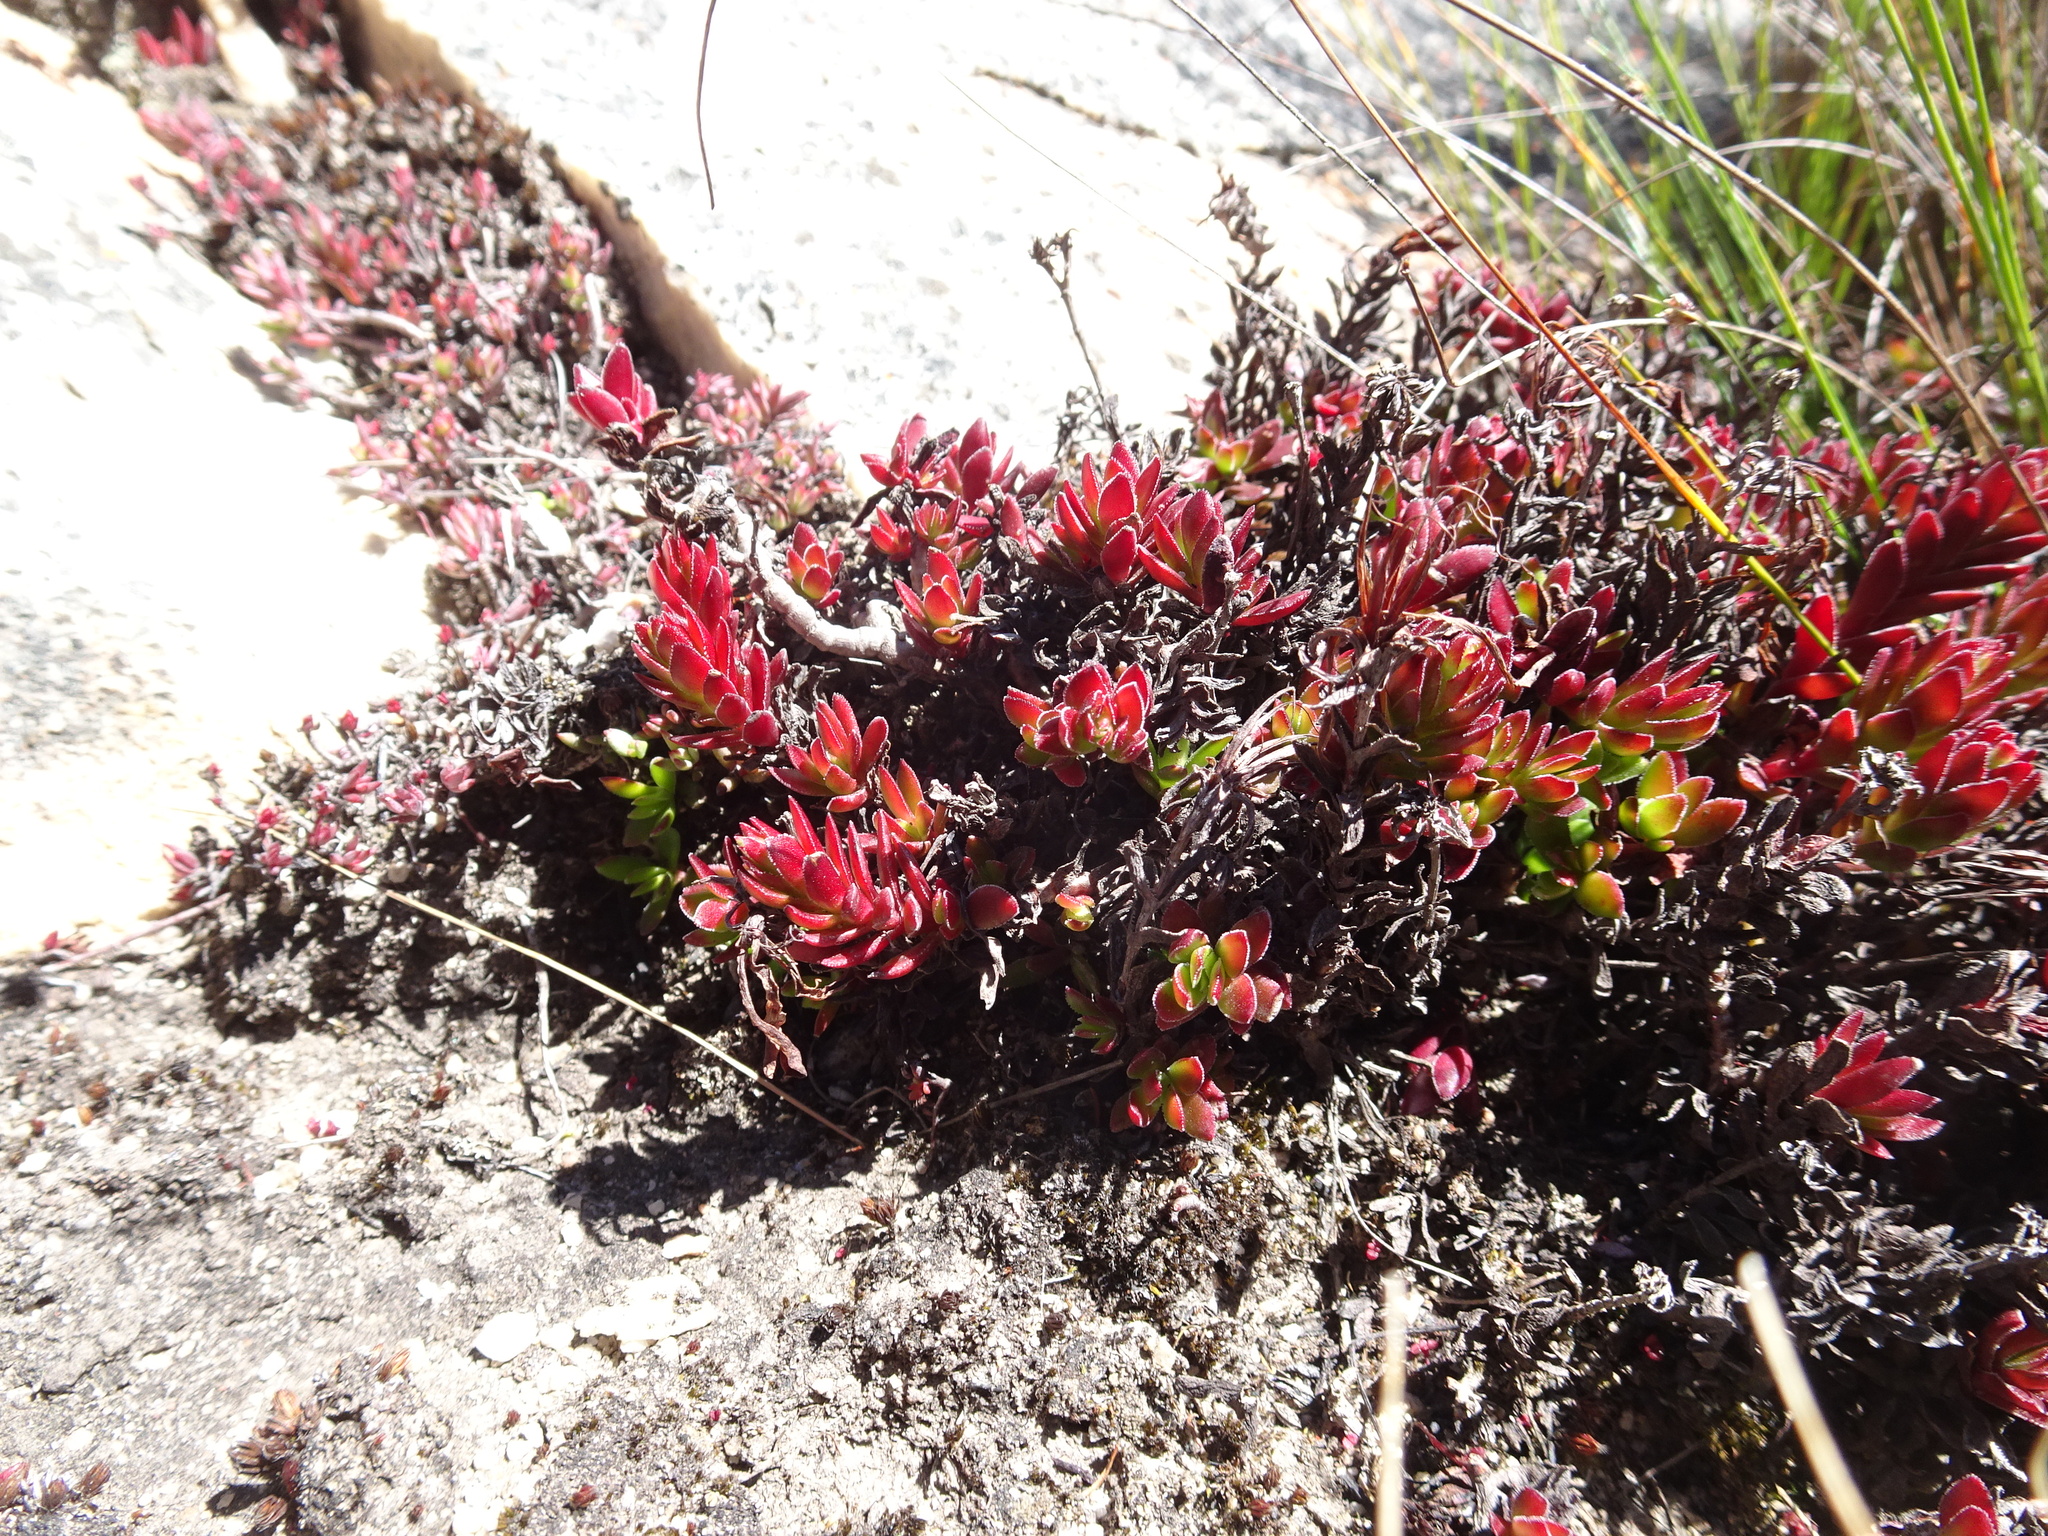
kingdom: Plantae
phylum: Tracheophyta
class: Magnoliopsida
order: Saxifragales
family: Crassulaceae
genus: Crassula
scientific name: Crassula obtusa
